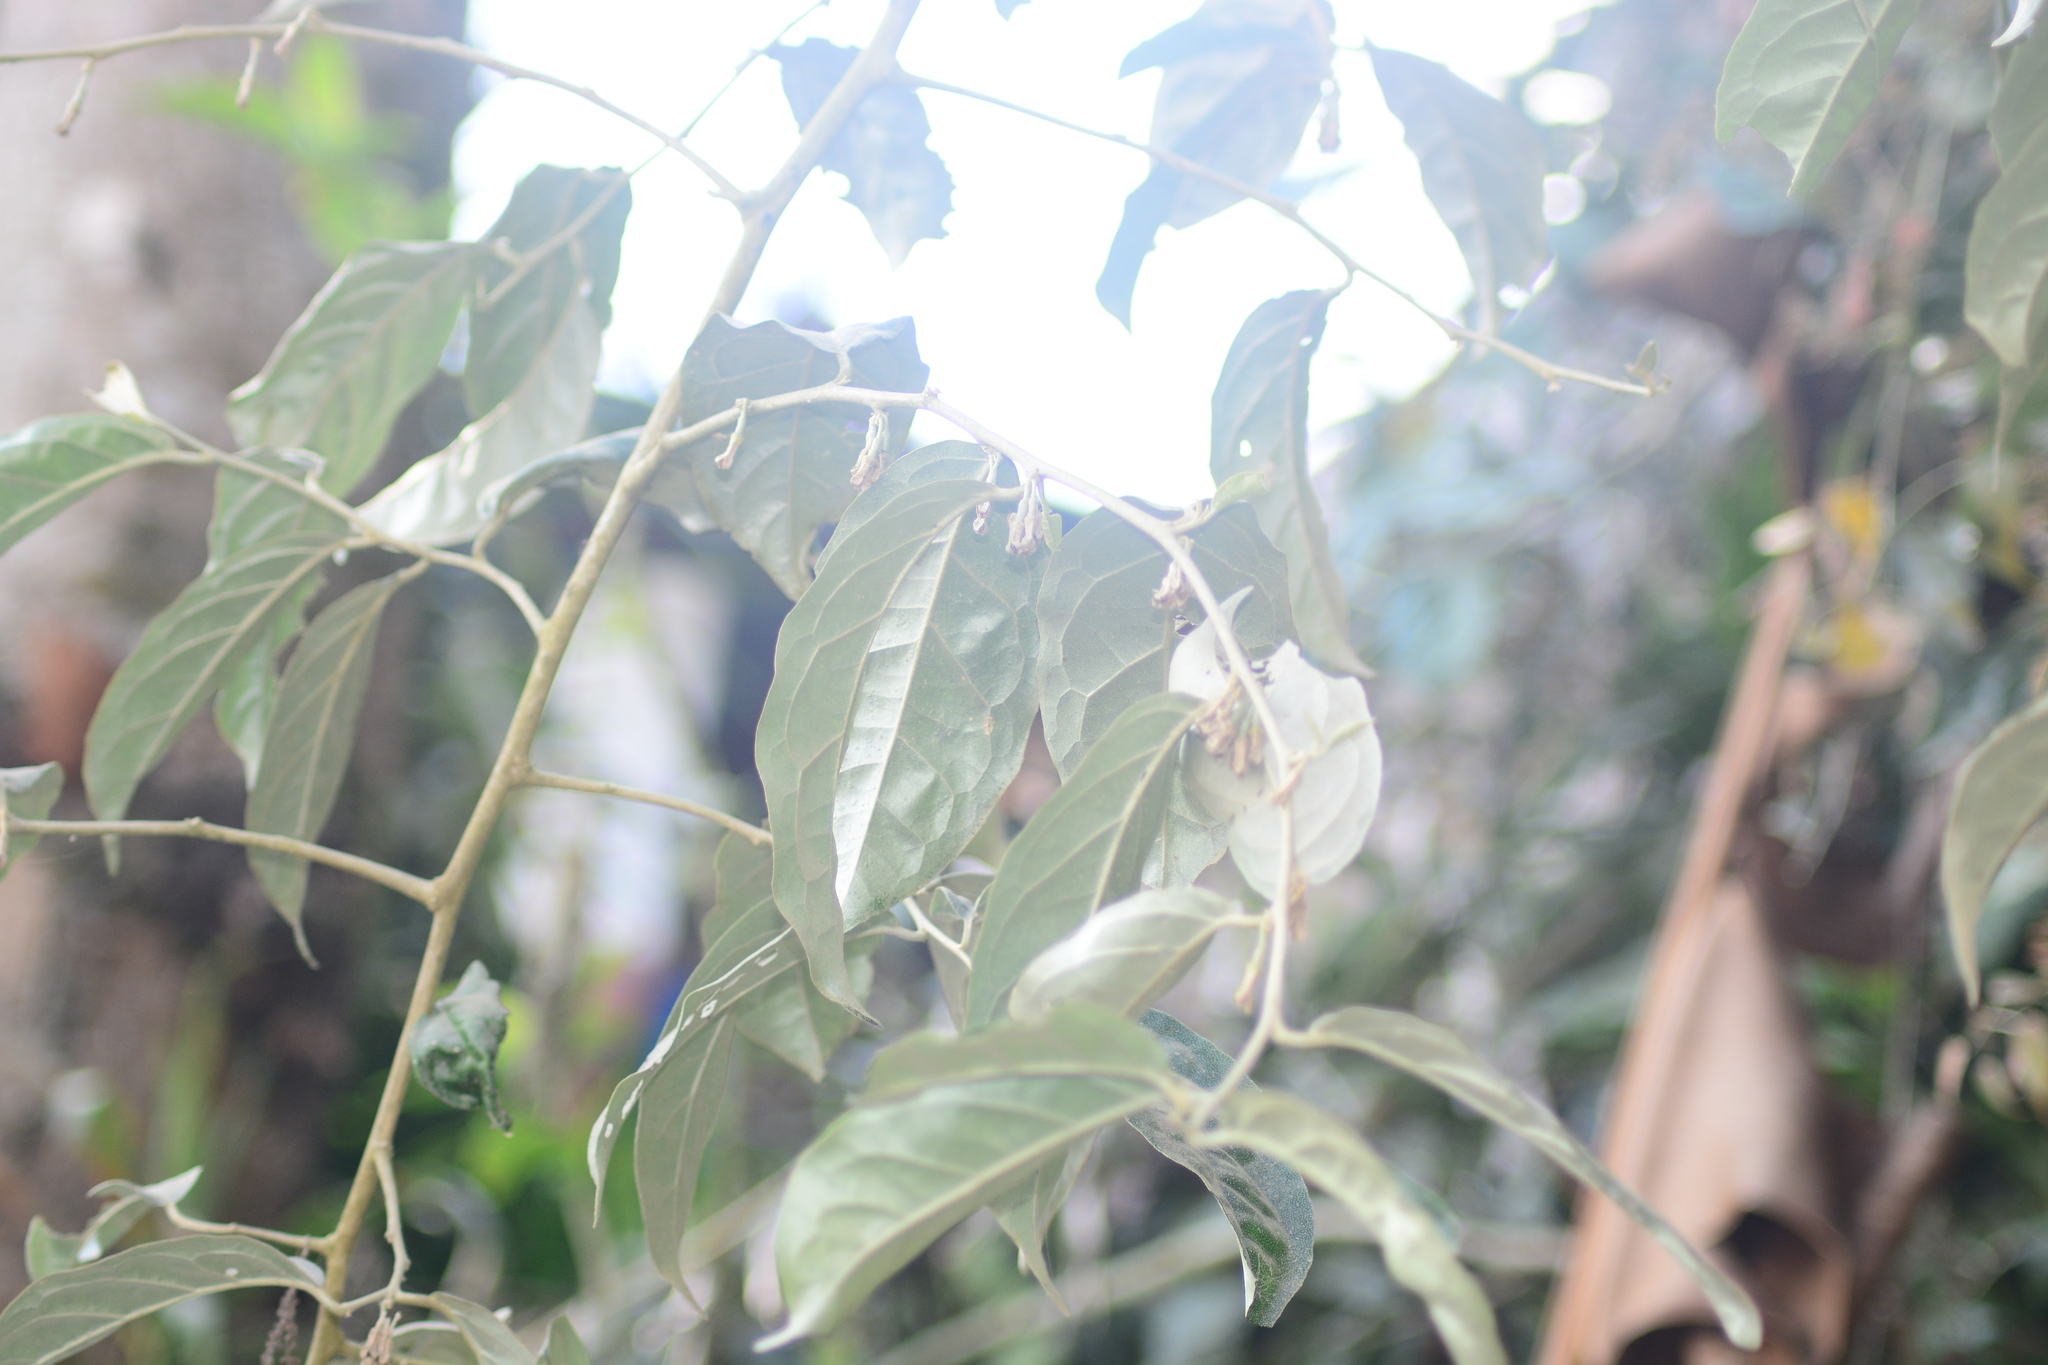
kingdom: Plantae
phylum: Tracheophyta
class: Magnoliopsida
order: Rosales
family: Elaeagnaceae
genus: Elaeagnus
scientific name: Elaeagnus conferta
